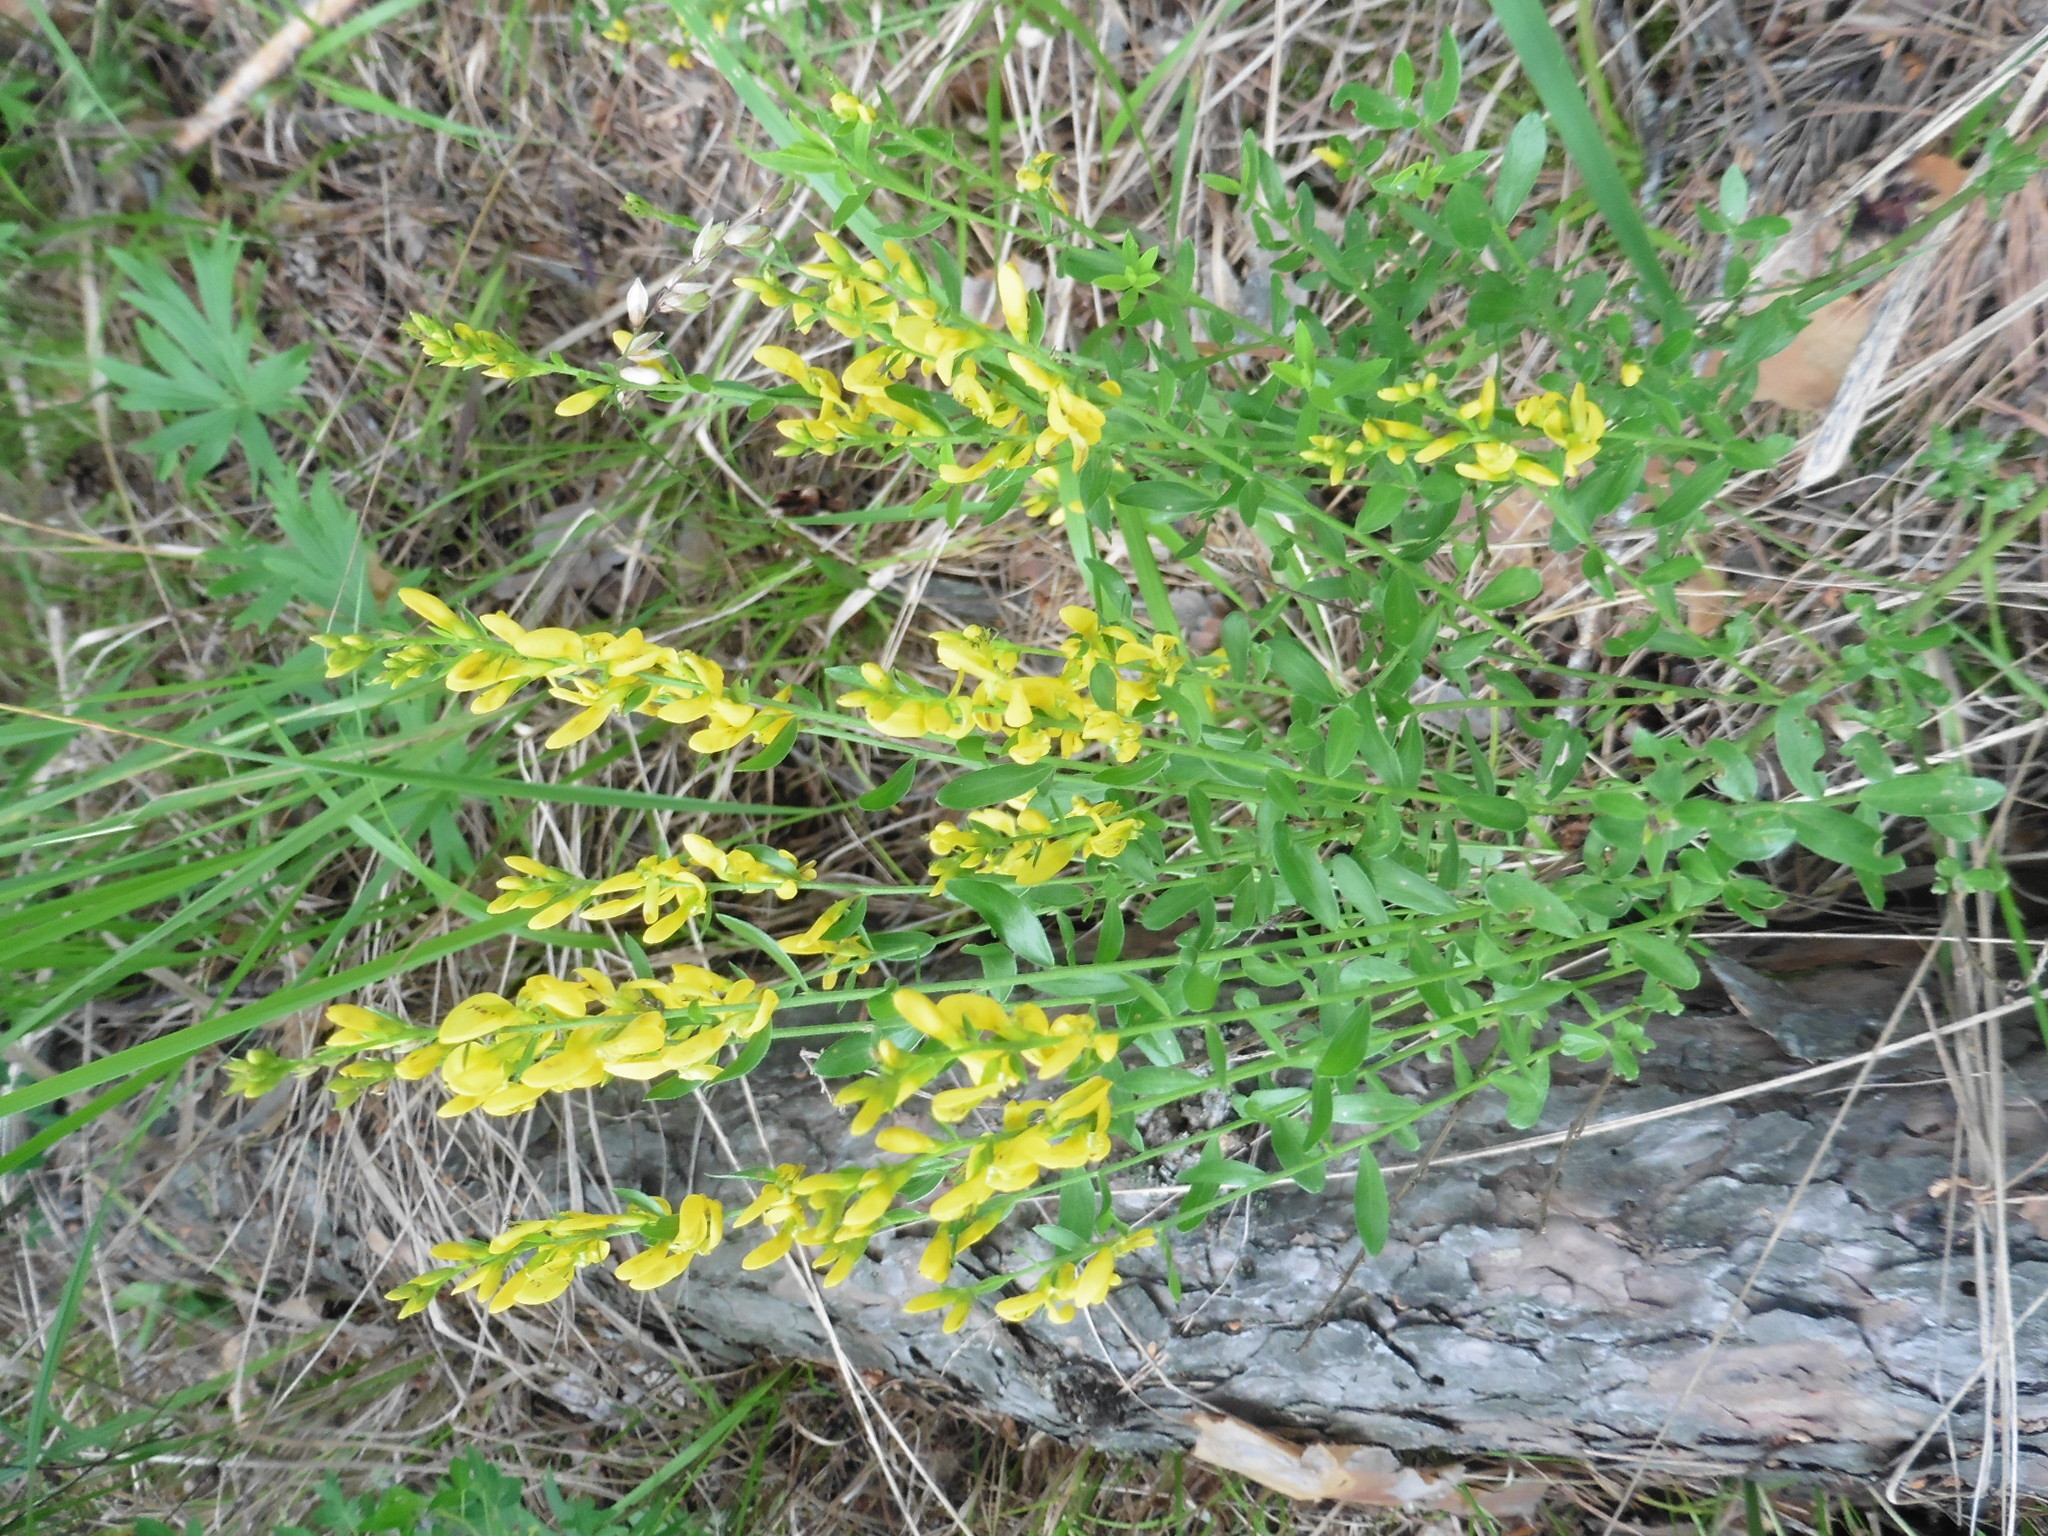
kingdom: Plantae
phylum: Tracheophyta
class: Magnoliopsida
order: Fabales
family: Fabaceae
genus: Genista
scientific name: Genista tinctoria
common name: Dyer's greenweed
